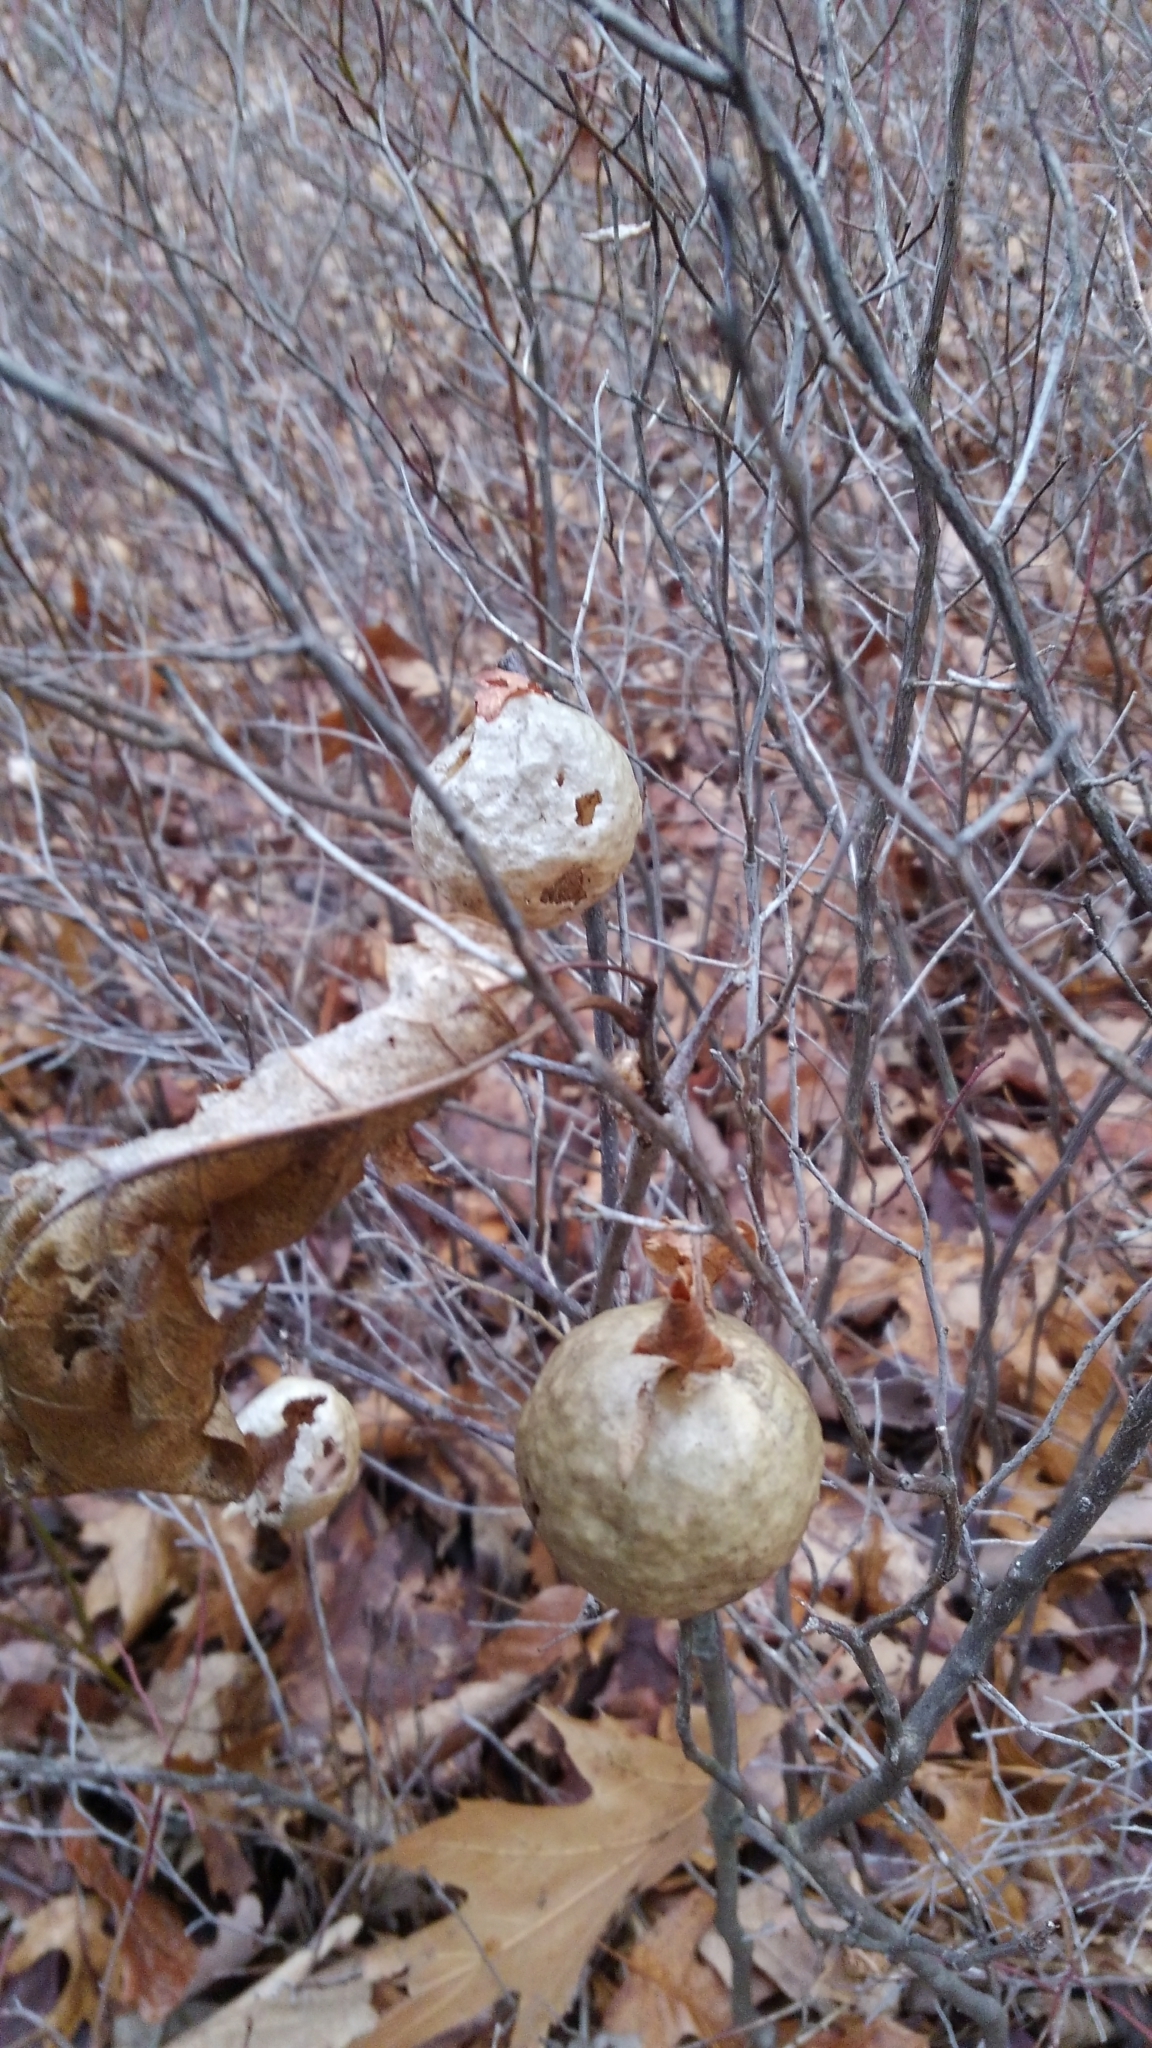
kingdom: Animalia
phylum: Arthropoda
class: Insecta
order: Hymenoptera
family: Cynipidae
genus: Amphibolips
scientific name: Amphibolips
